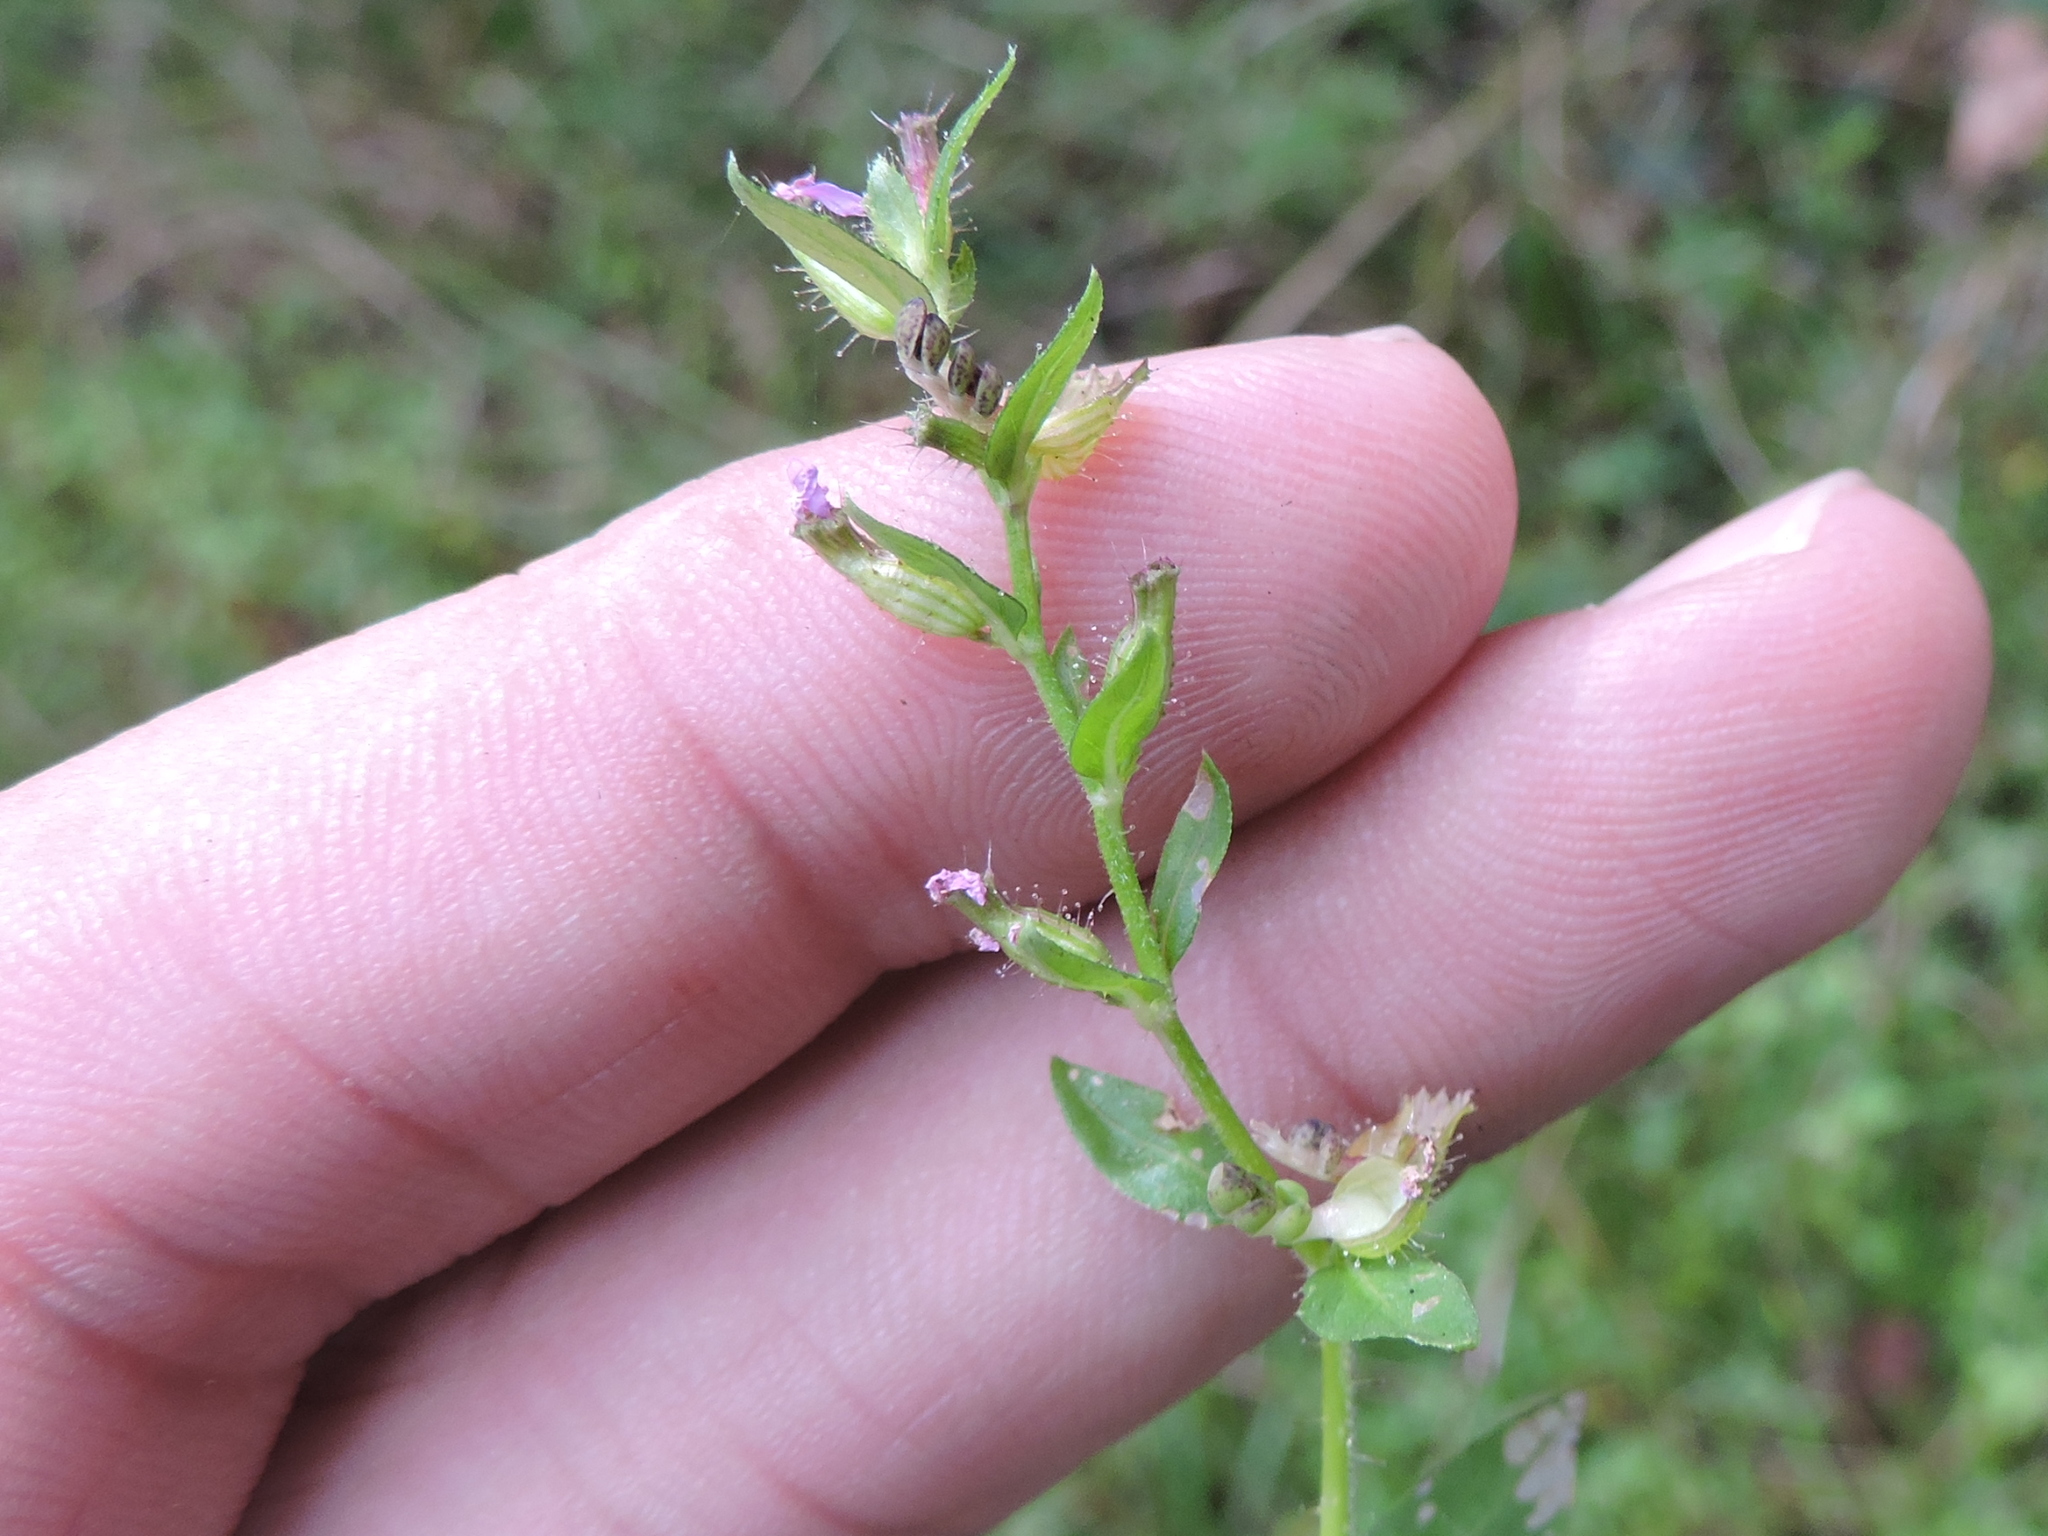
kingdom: Plantae
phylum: Tracheophyta
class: Magnoliopsida
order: Myrtales
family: Lythraceae
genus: Cuphea
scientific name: Cuphea carthagenensis
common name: Colombian waxweed
